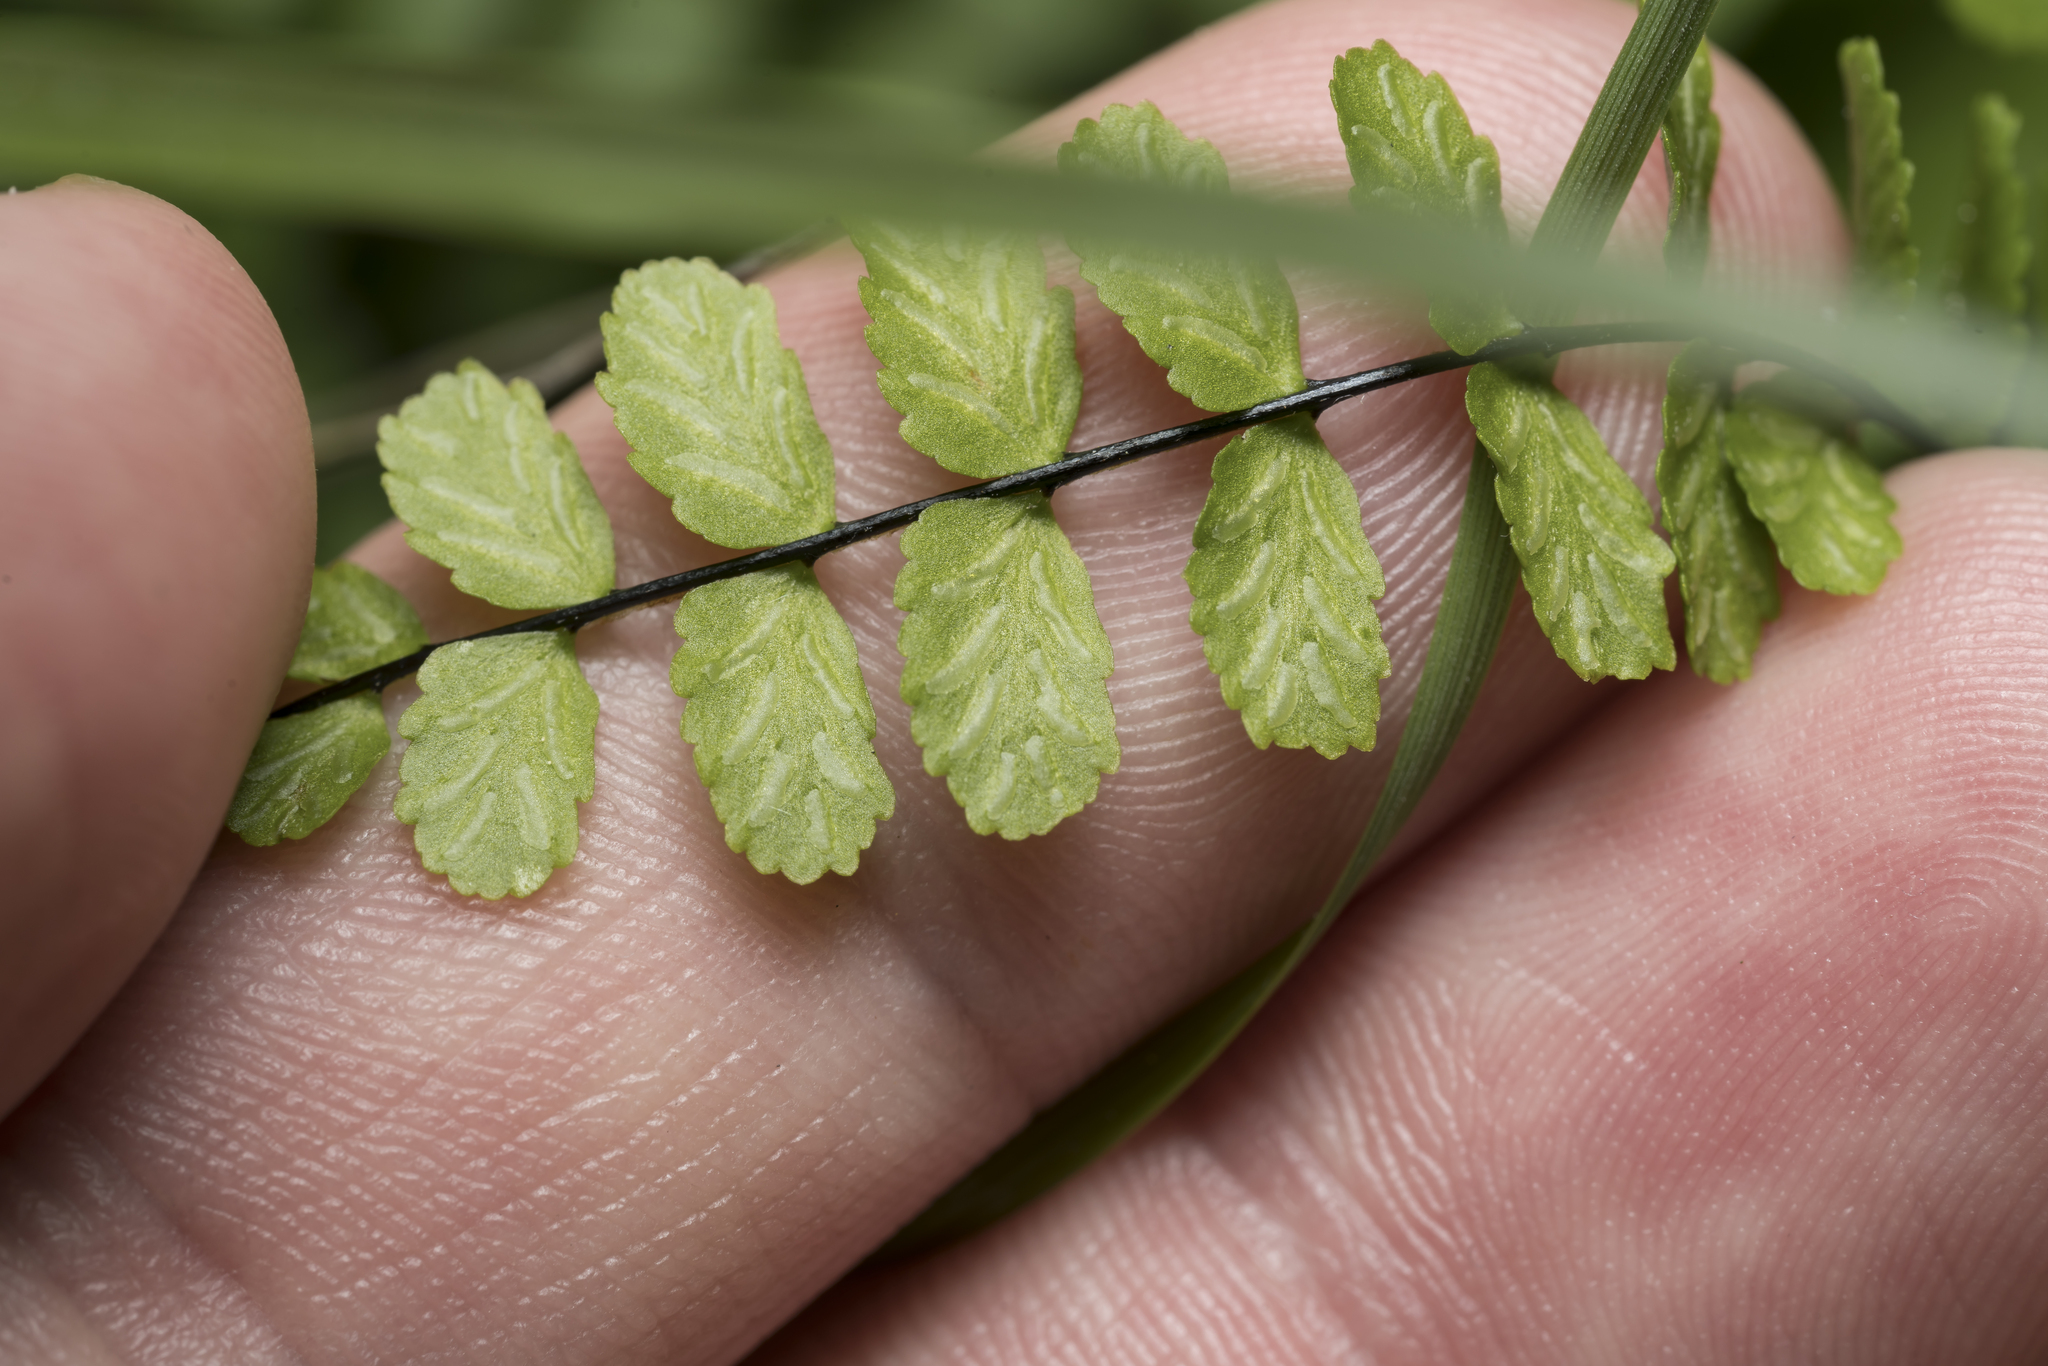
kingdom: Plantae
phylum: Tracheophyta
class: Polypodiopsida
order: Polypodiales
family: Aspleniaceae
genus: Asplenium
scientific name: Asplenium trichomanes
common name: Maidenhair spleenwort
